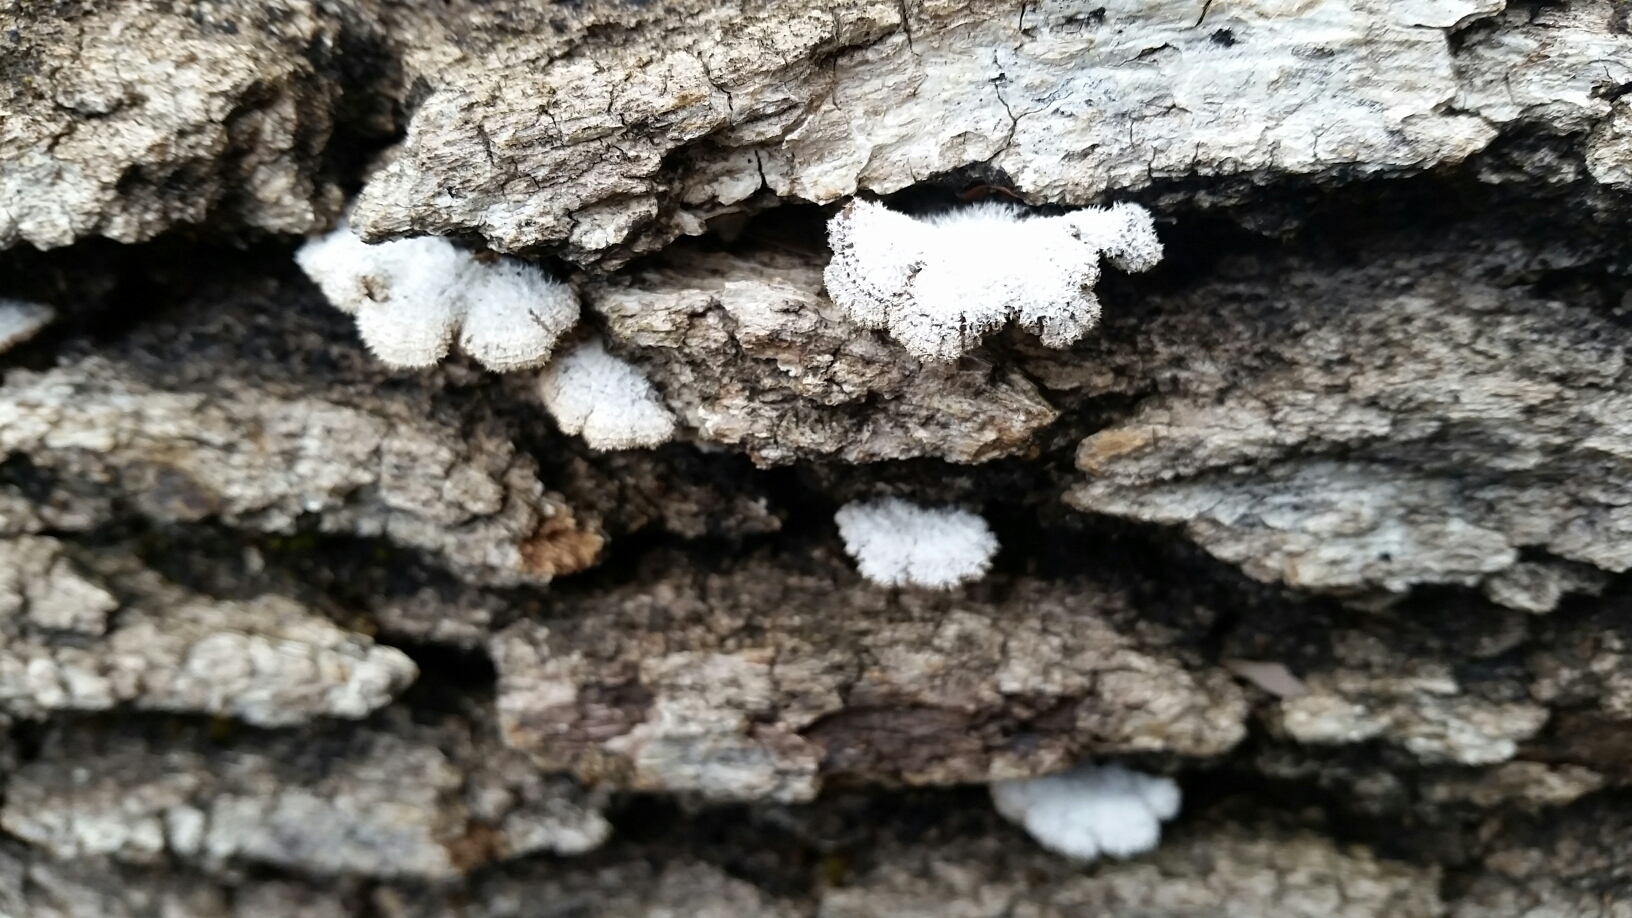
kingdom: Fungi
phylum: Basidiomycota
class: Agaricomycetes
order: Agaricales
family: Schizophyllaceae
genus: Schizophyllum
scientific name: Schizophyllum commune
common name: Common porecrust
